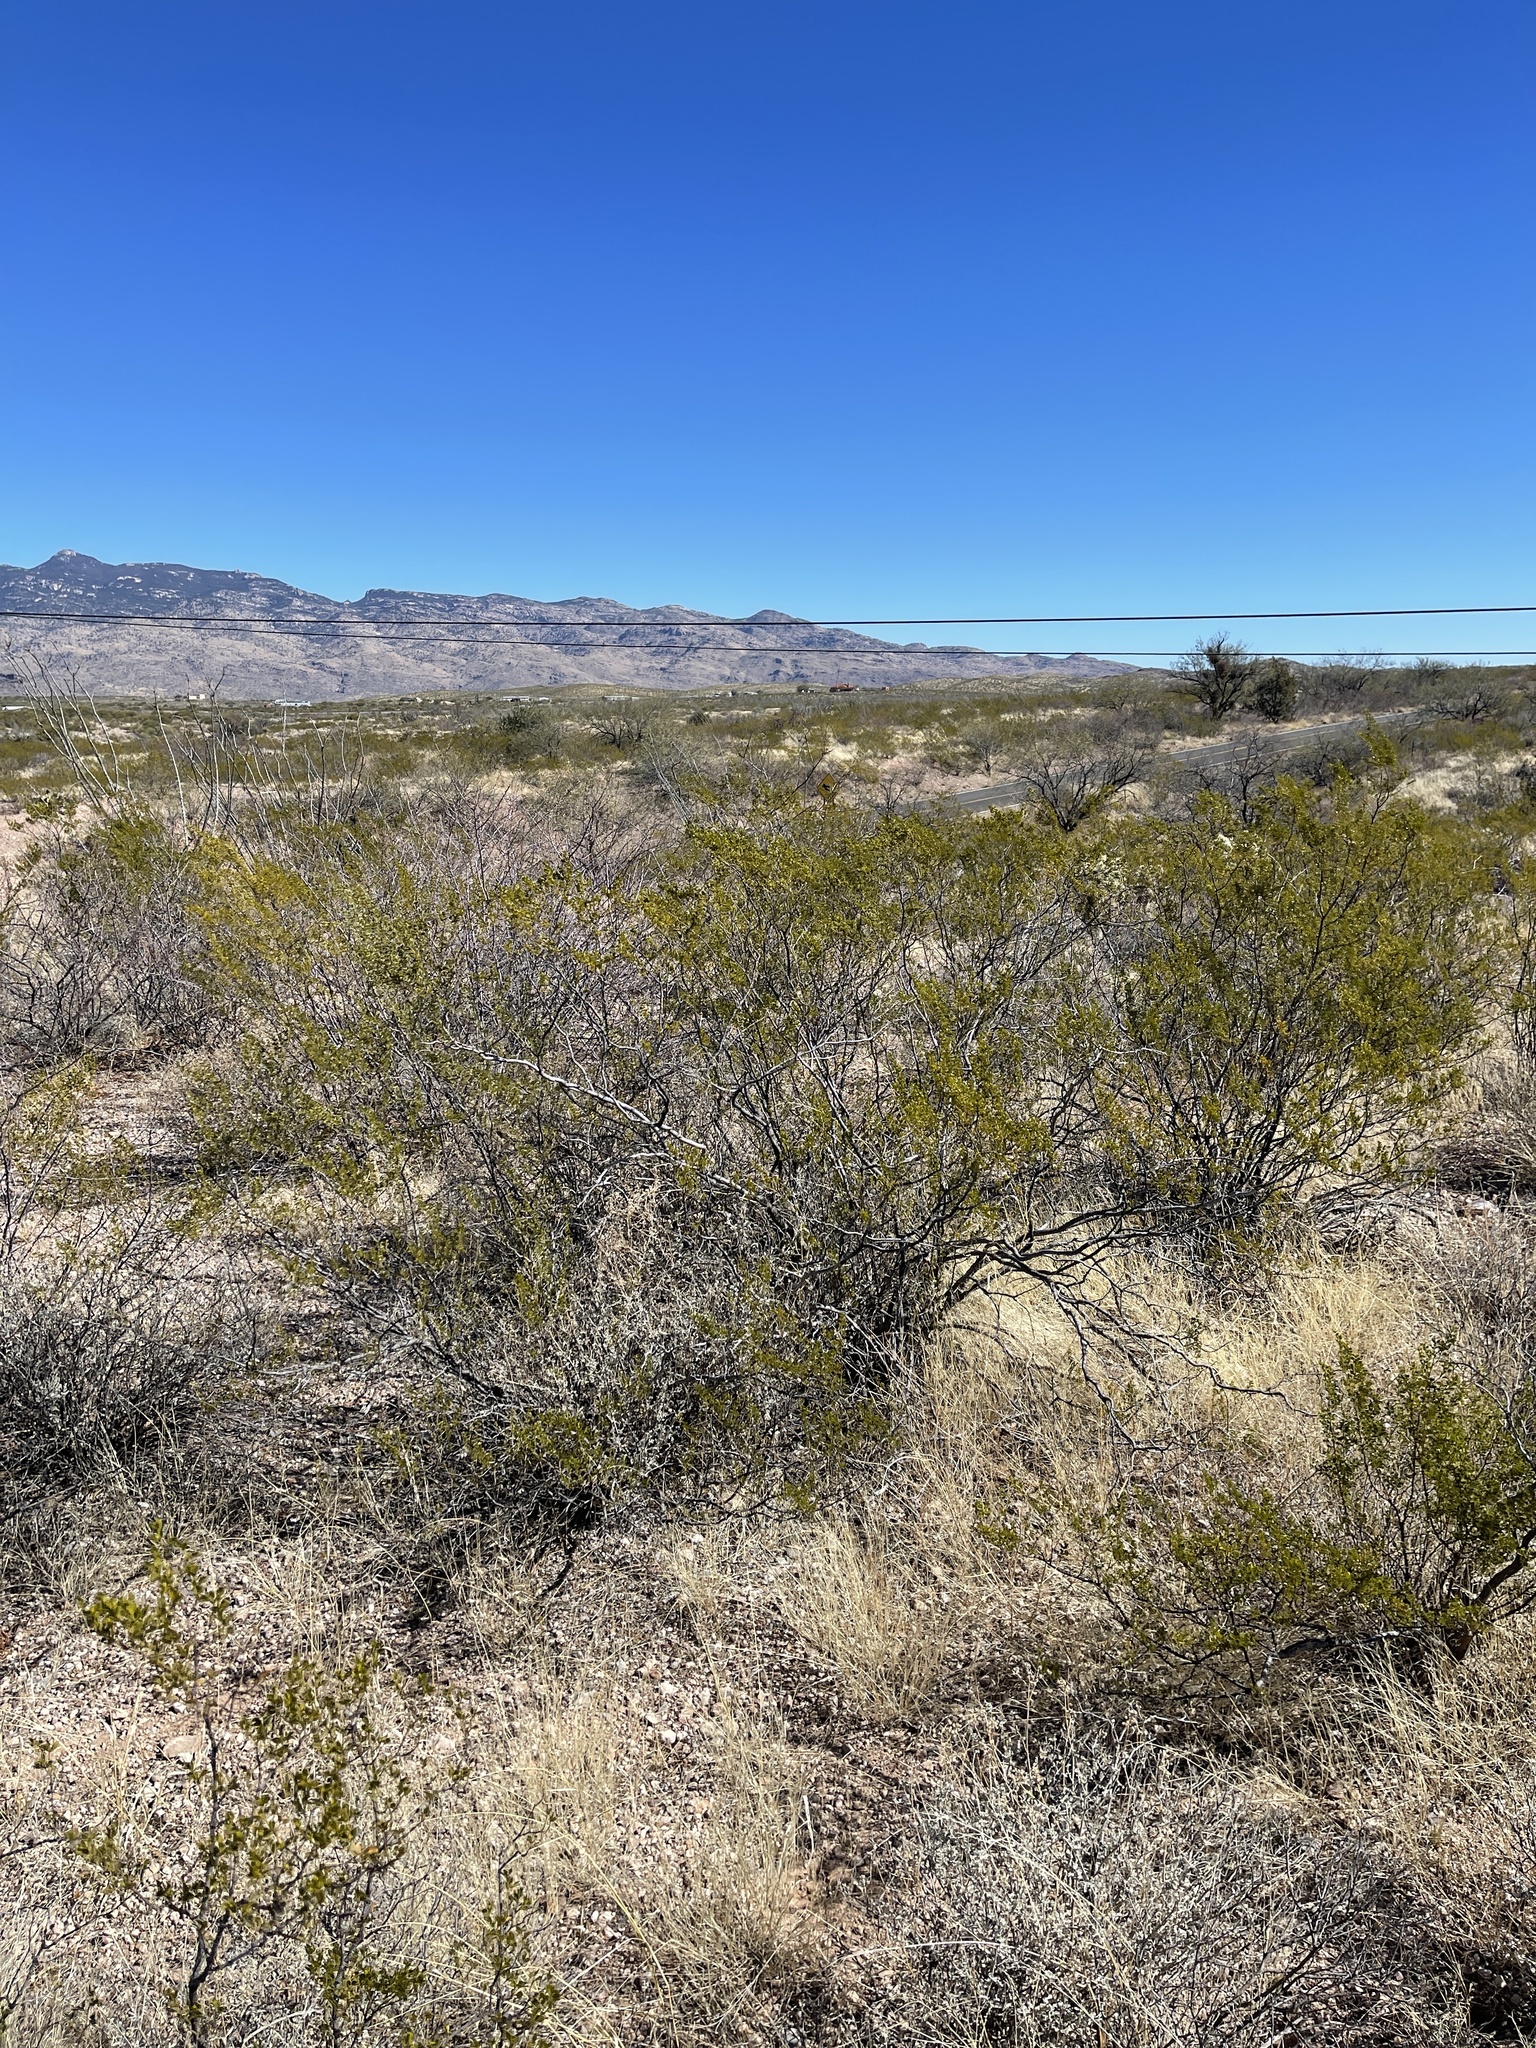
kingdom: Plantae
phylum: Tracheophyta
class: Magnoliopsida
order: Zygophyllales
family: Zygophyllaceae
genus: Larrea
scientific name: Larrea tridentata
